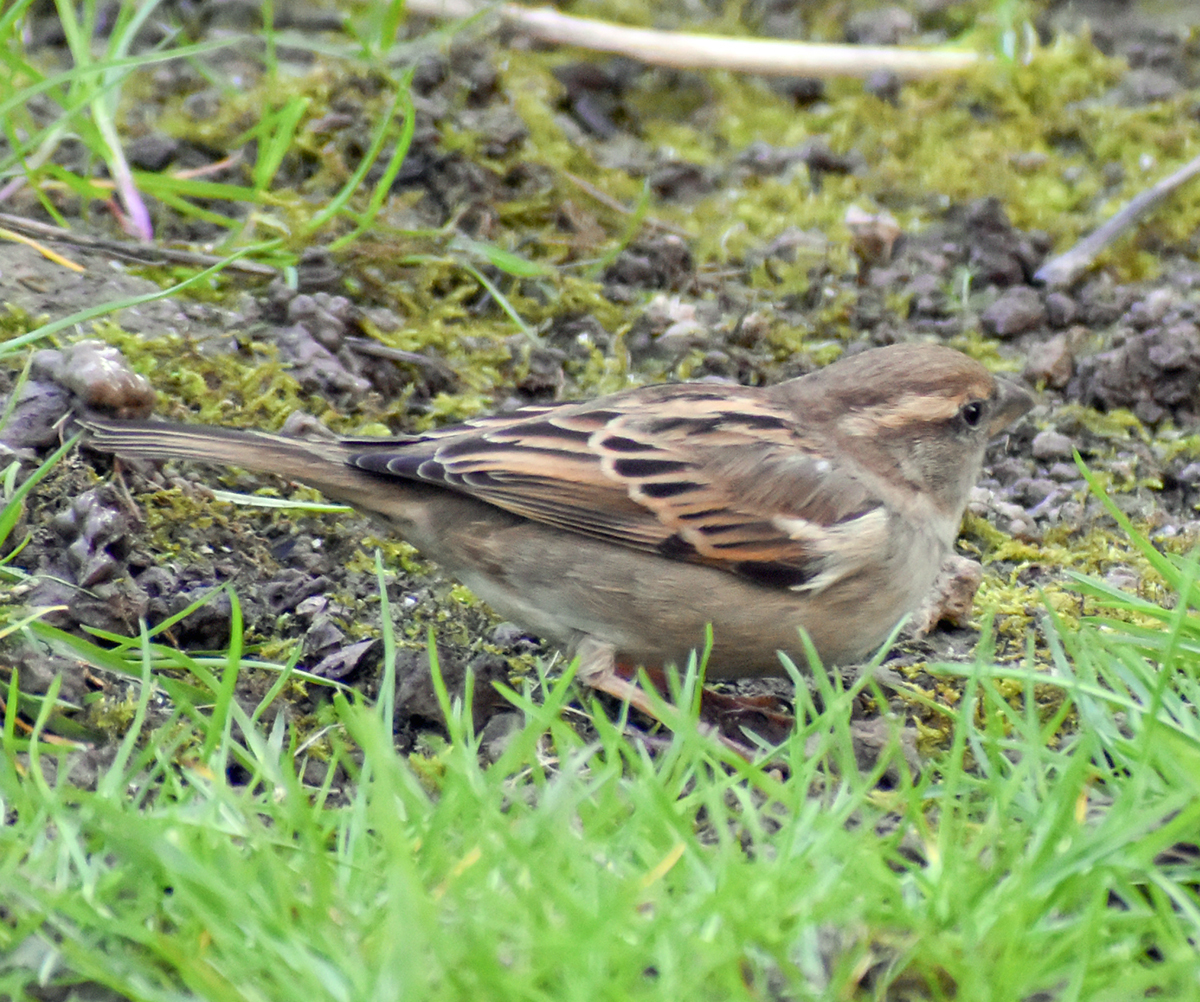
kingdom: Animalia
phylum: Chordata
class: Aves
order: Passeriformes
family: Passeridae
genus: Passer
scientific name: Passer italiae
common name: Italian sparrow
